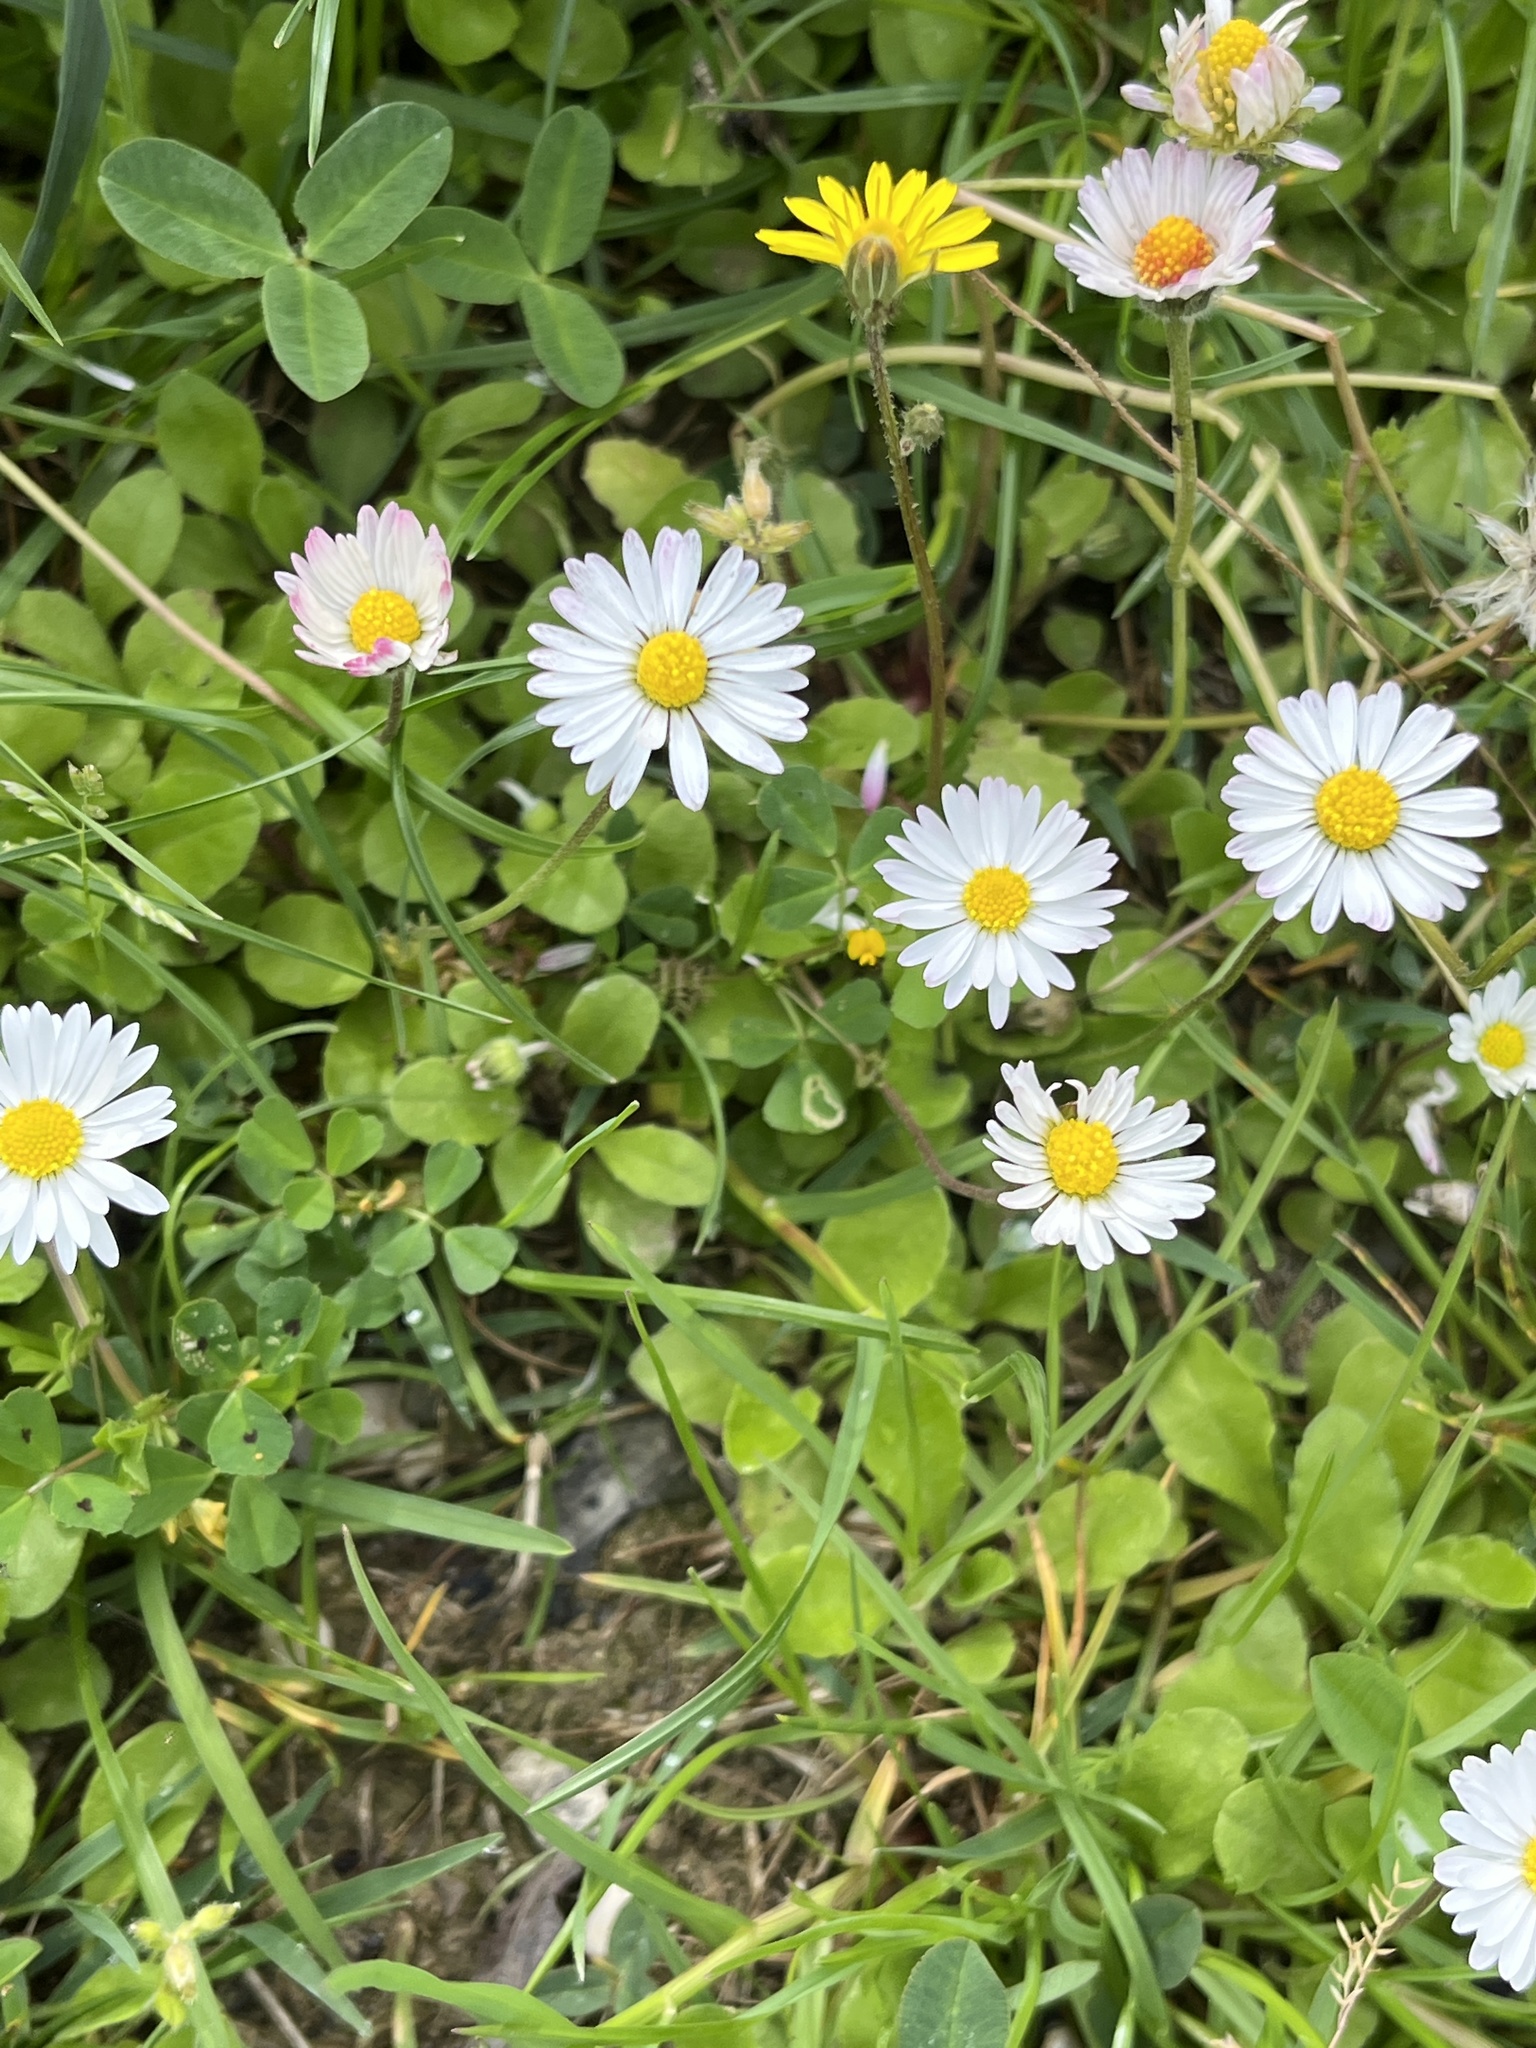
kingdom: Plantae
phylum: Tracheophyta
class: Magnoliopsida
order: Asterales
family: Asteraceae
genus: Bellis
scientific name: Bellis perennis
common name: Lawndaisy
